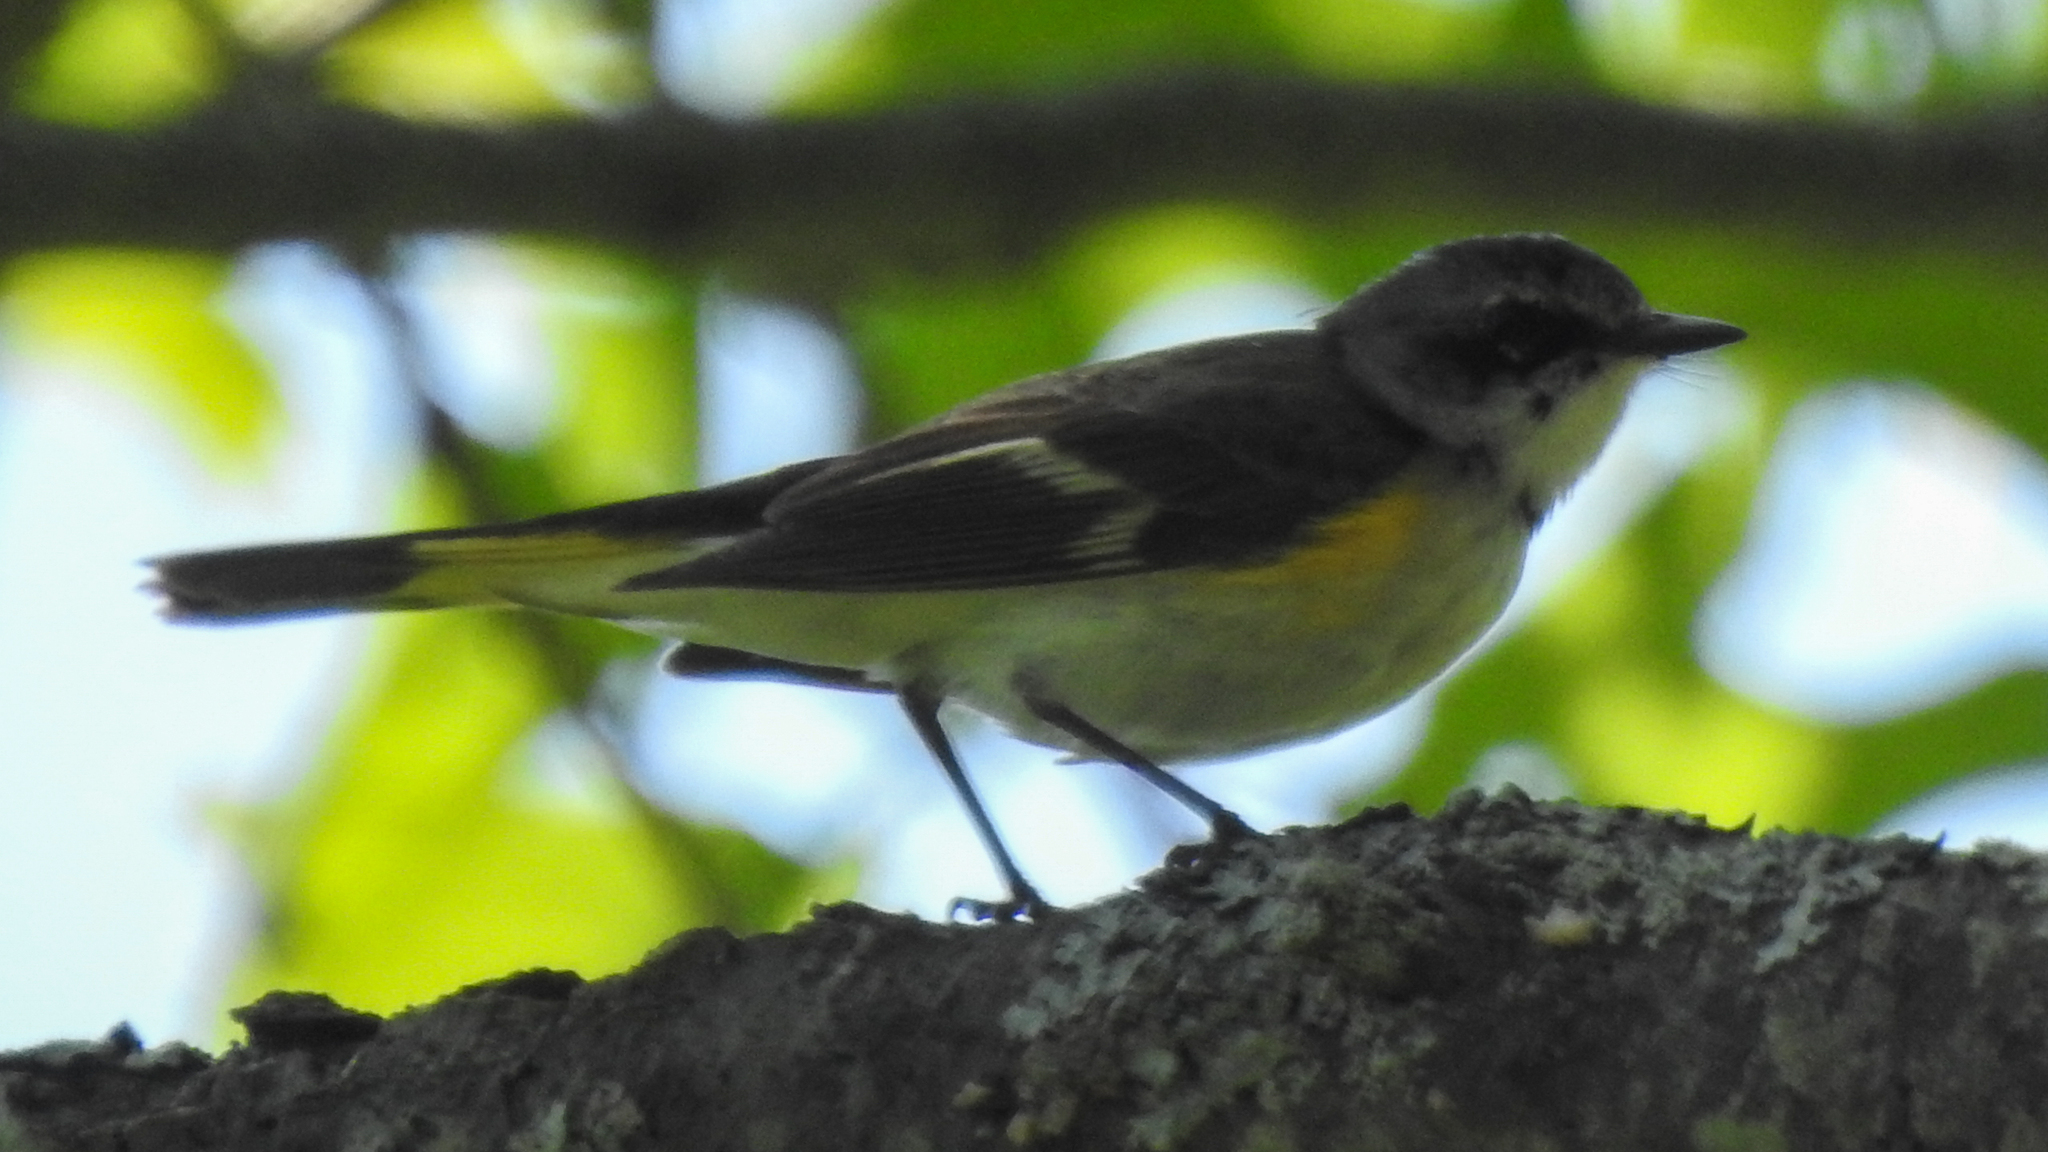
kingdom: Animalia
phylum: Chordata
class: Aves
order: Passeriformes
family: Parulidae
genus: Setophaga
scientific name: Setophaga ruticilla
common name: American redstart
